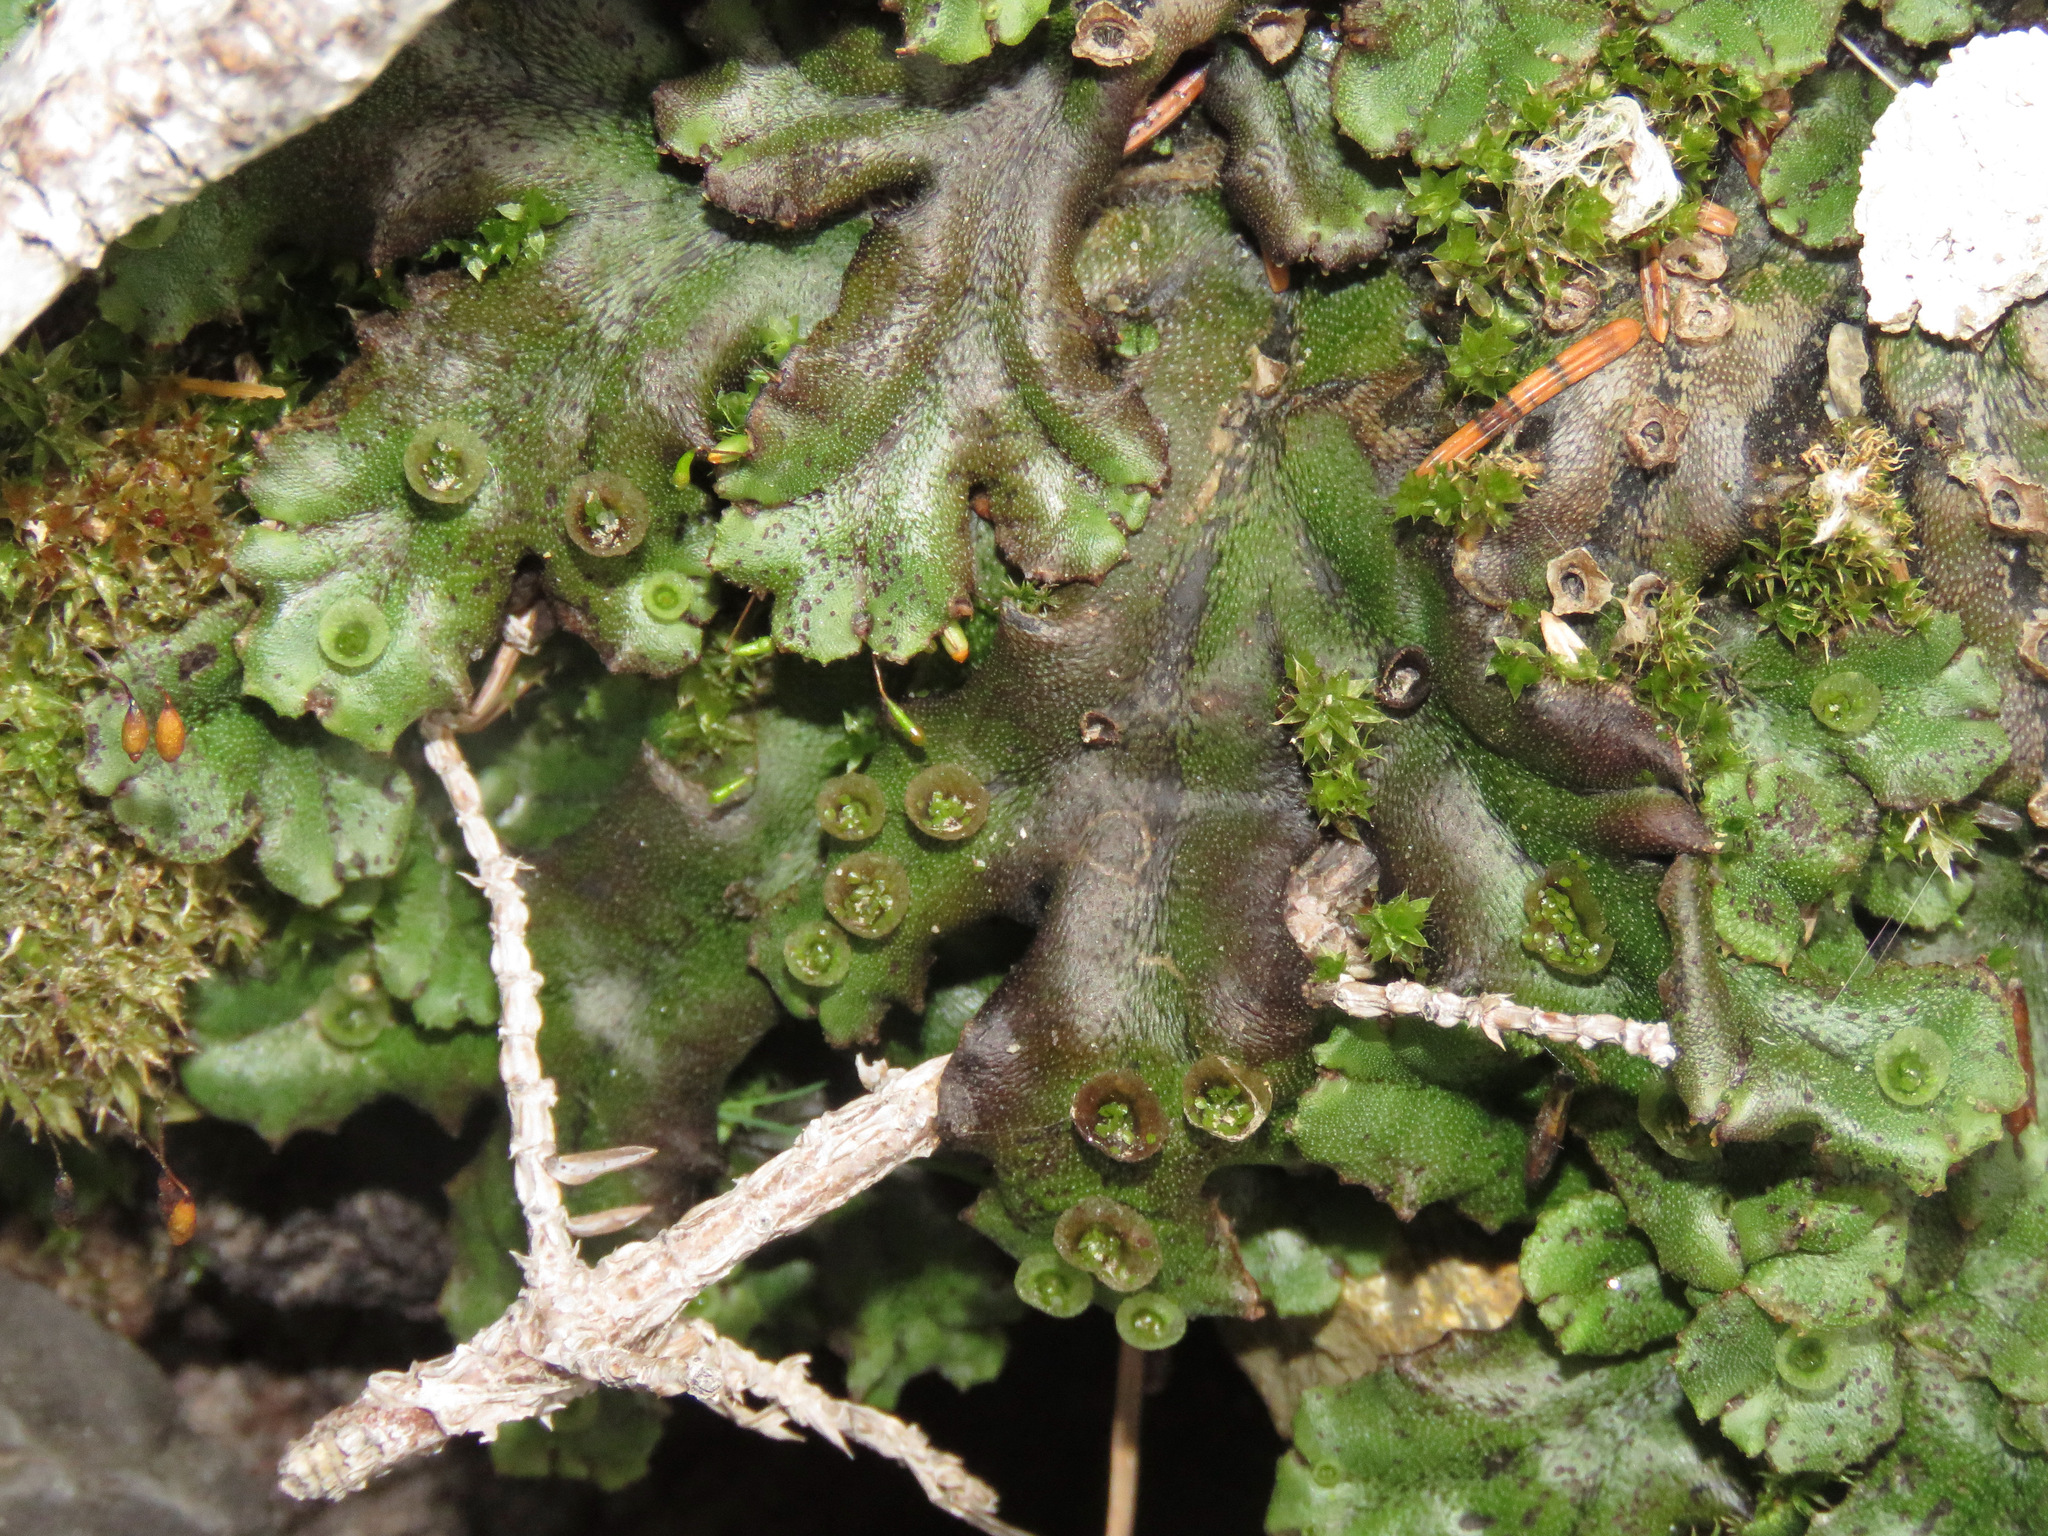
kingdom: Plantae
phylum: Marchantiophyta
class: Marchantiopsida
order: Marchantiales
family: Marchantiaceae
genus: Marchantia
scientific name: Marchantia polymorpha
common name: Common liverwort
